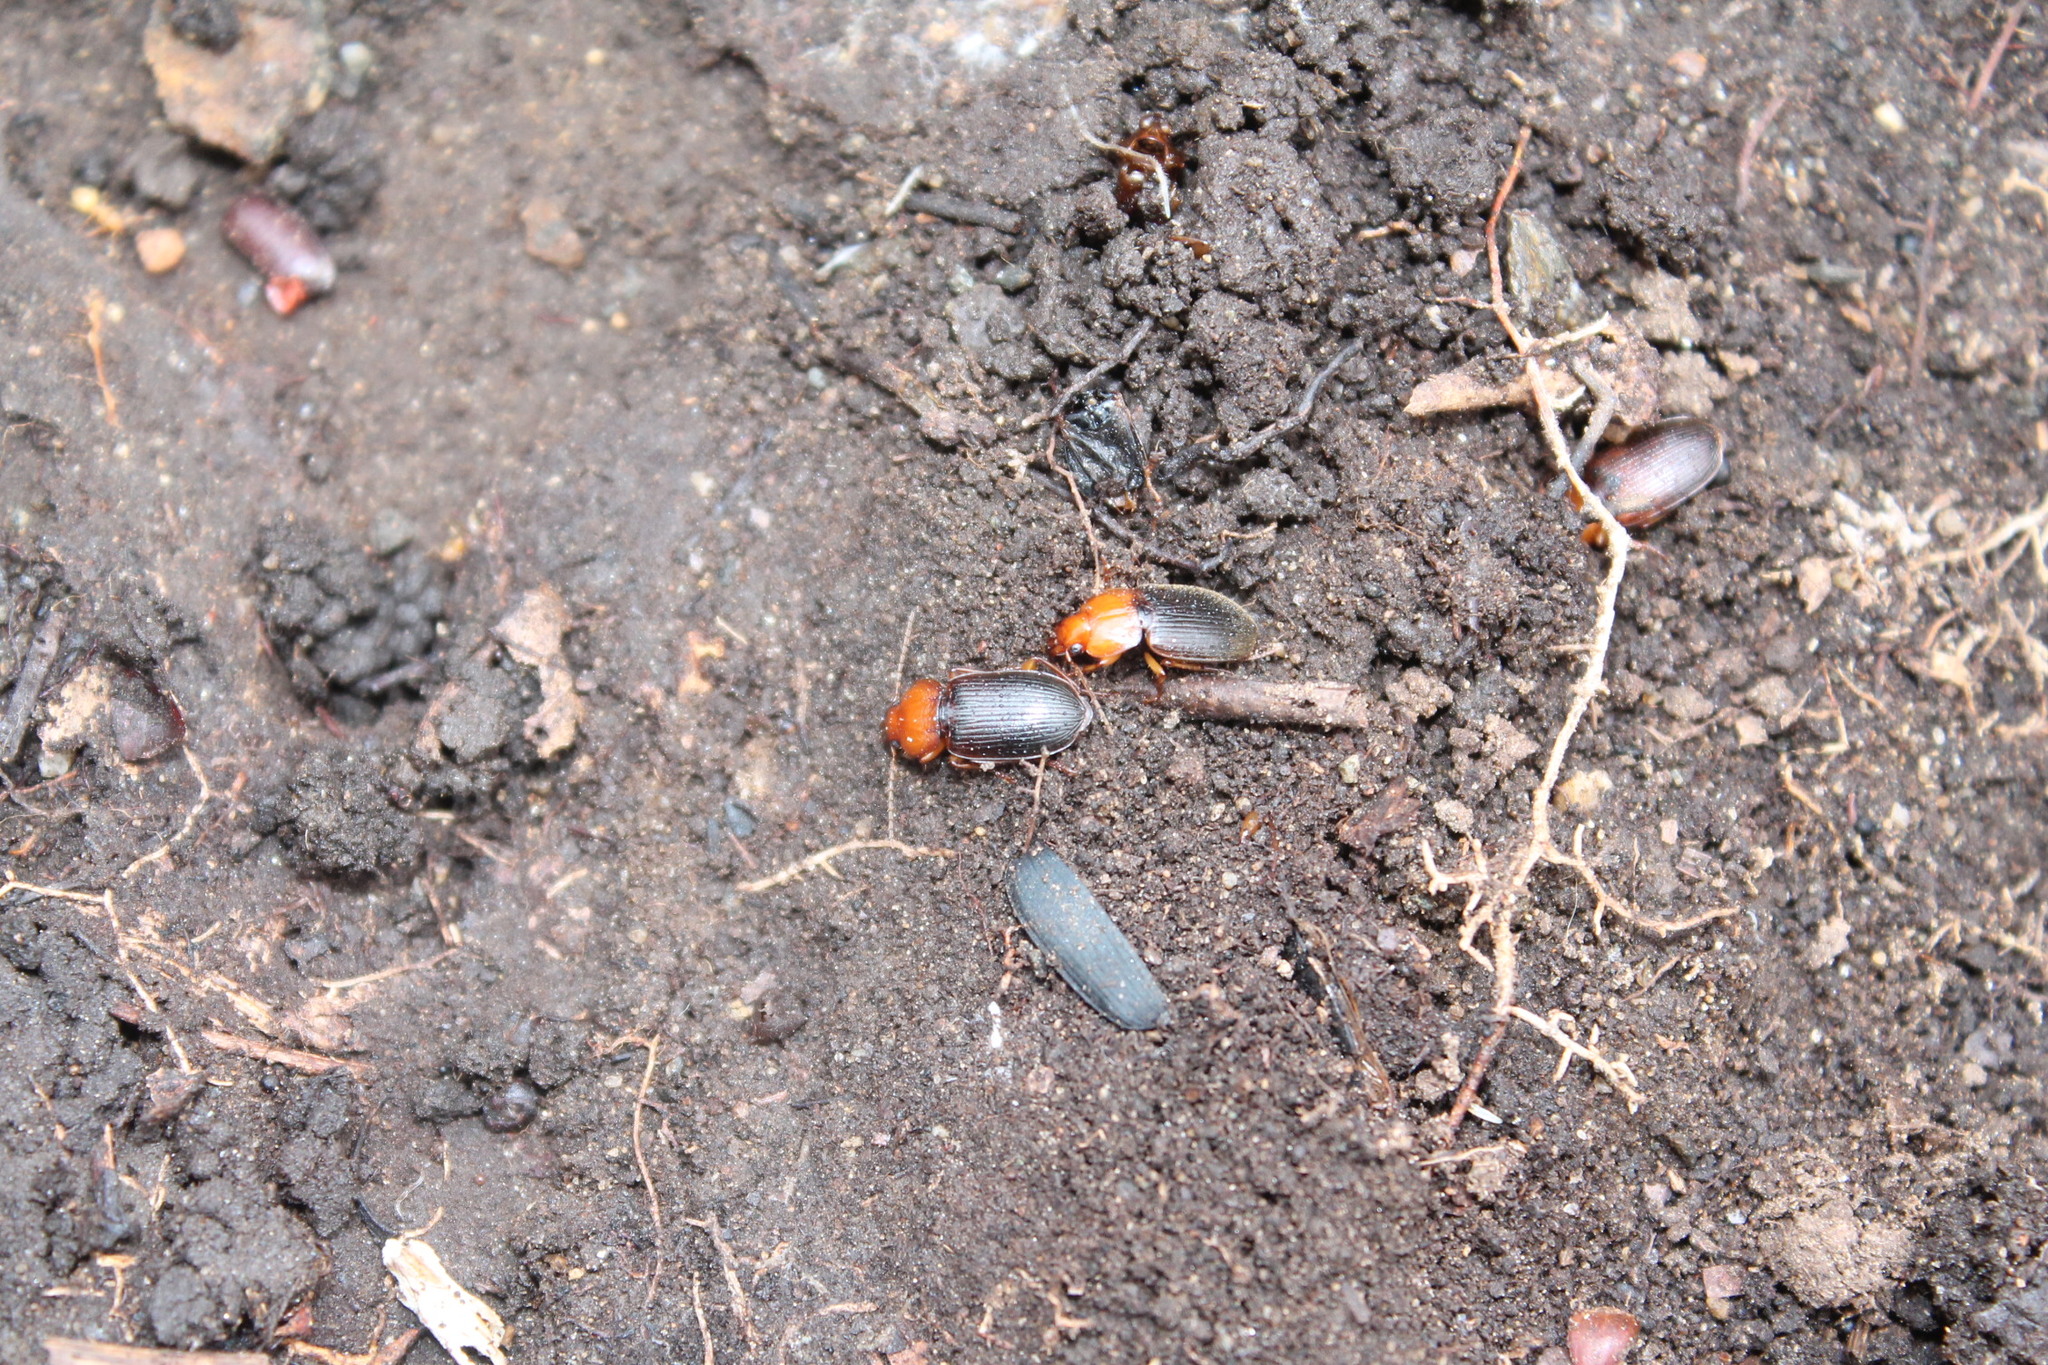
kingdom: Animalia
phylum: Arthropoda
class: Insecta
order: Coleoptera
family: Carabidae
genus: Amphasia
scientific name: Amphasia interstitialis
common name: Red-headed ground beetle
